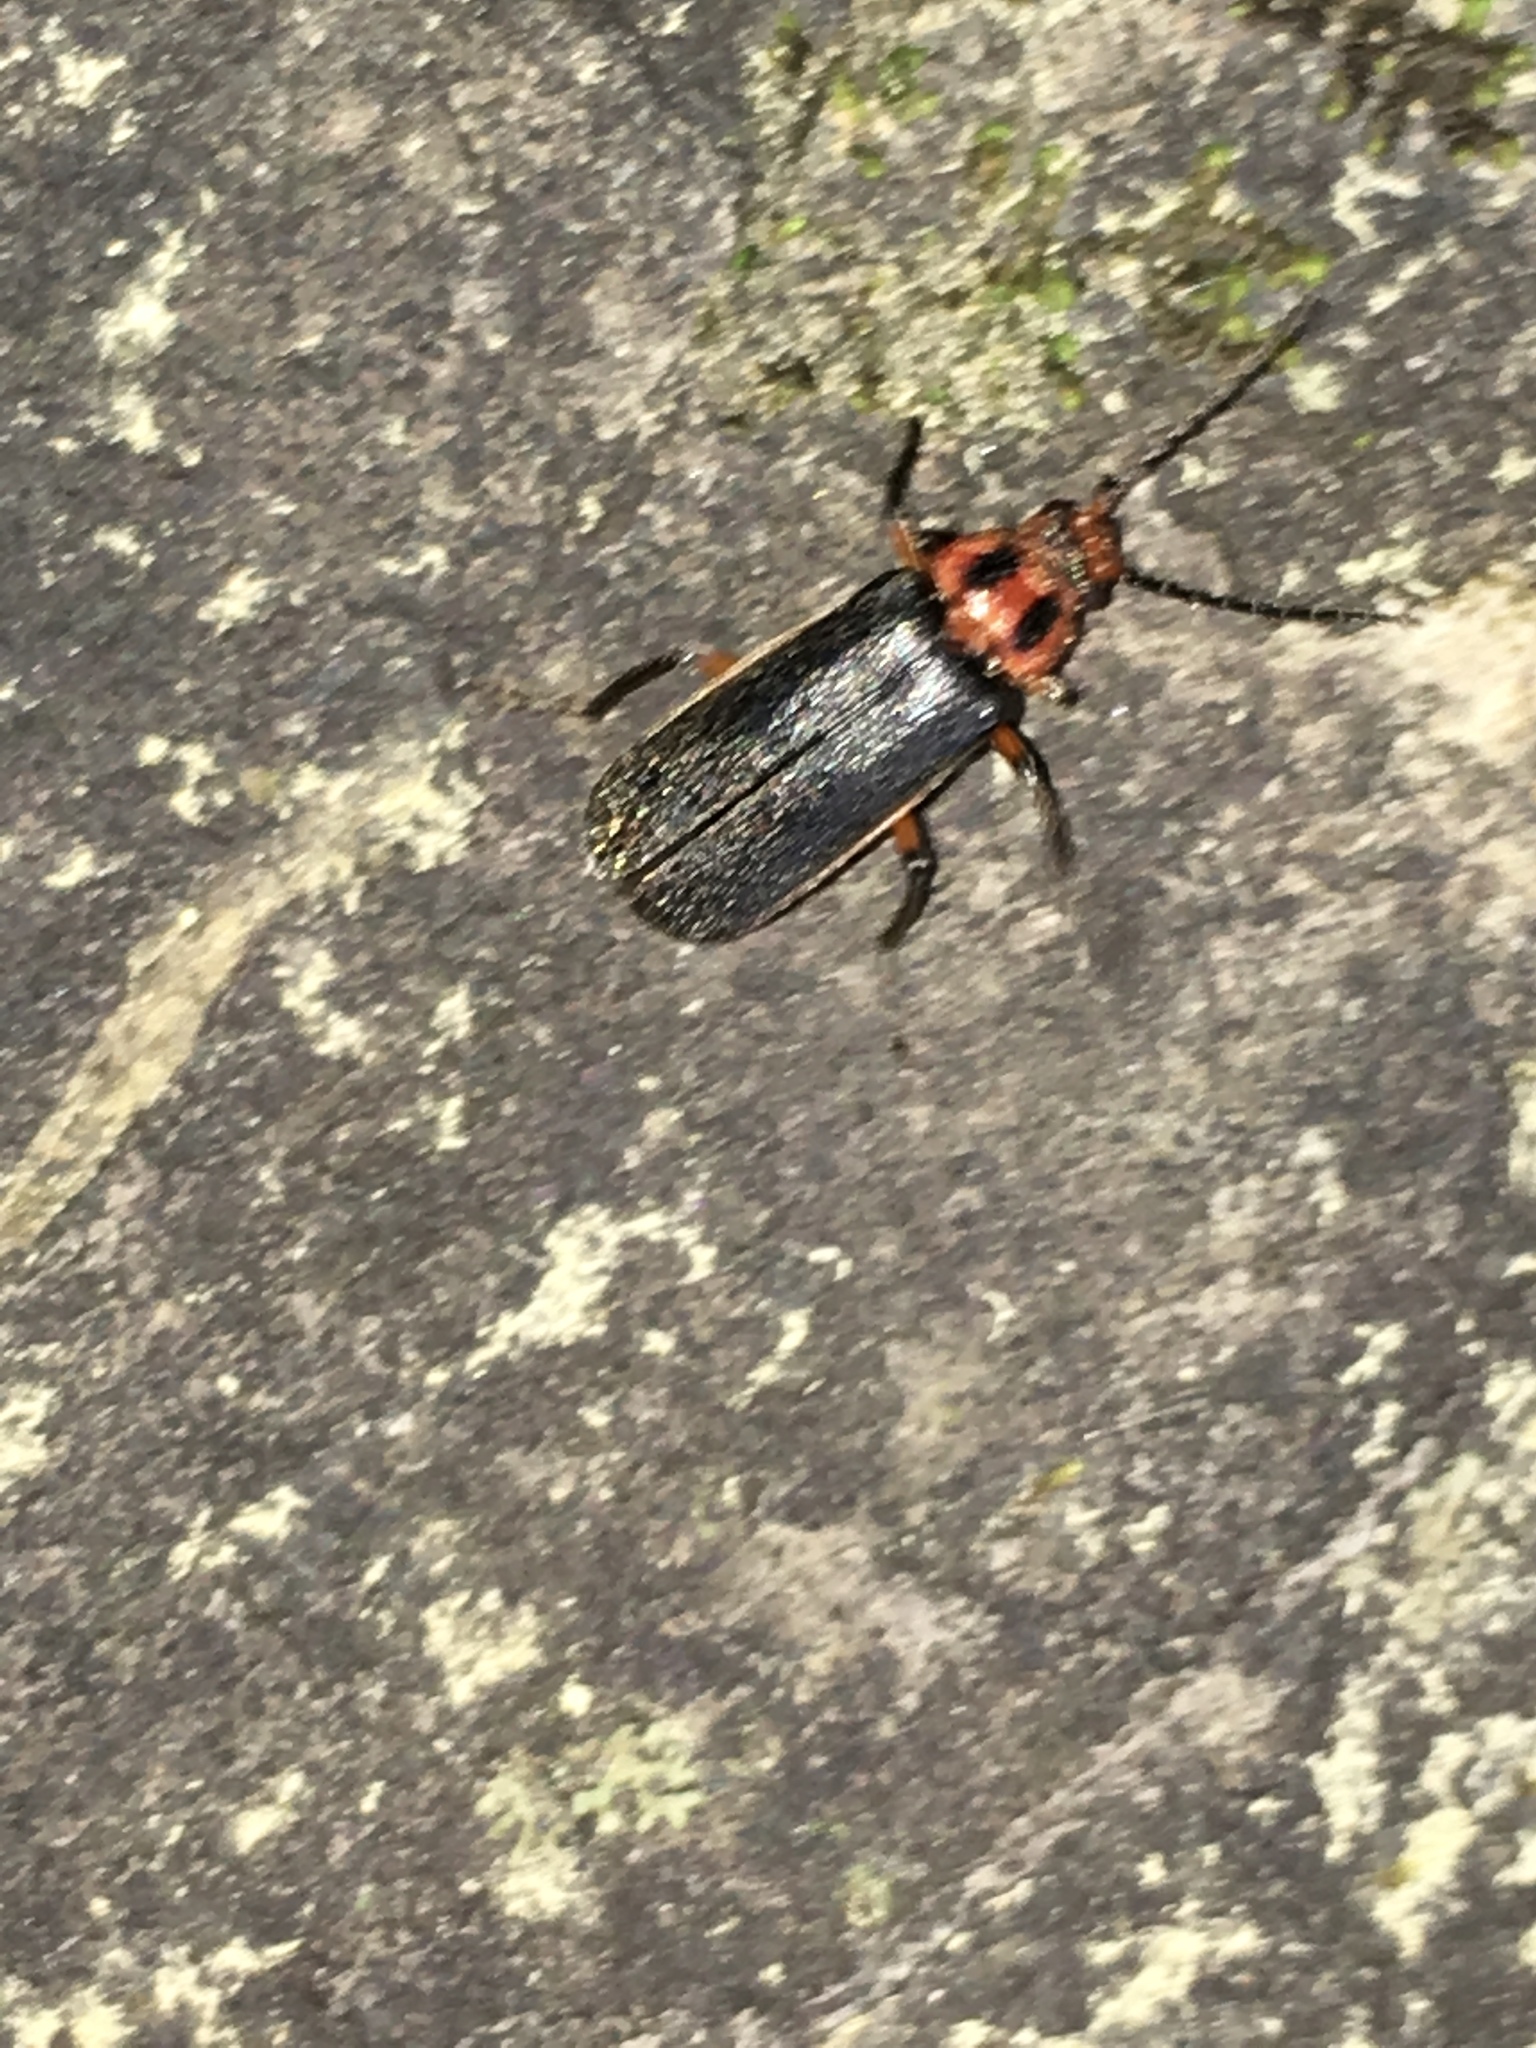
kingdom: Animalia
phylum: Arthropoda
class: Insecta
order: Coleoptera
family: Cantharidae
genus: Atalantycha
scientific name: Atalantycha bilineata
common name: Two-lined leatherwing
